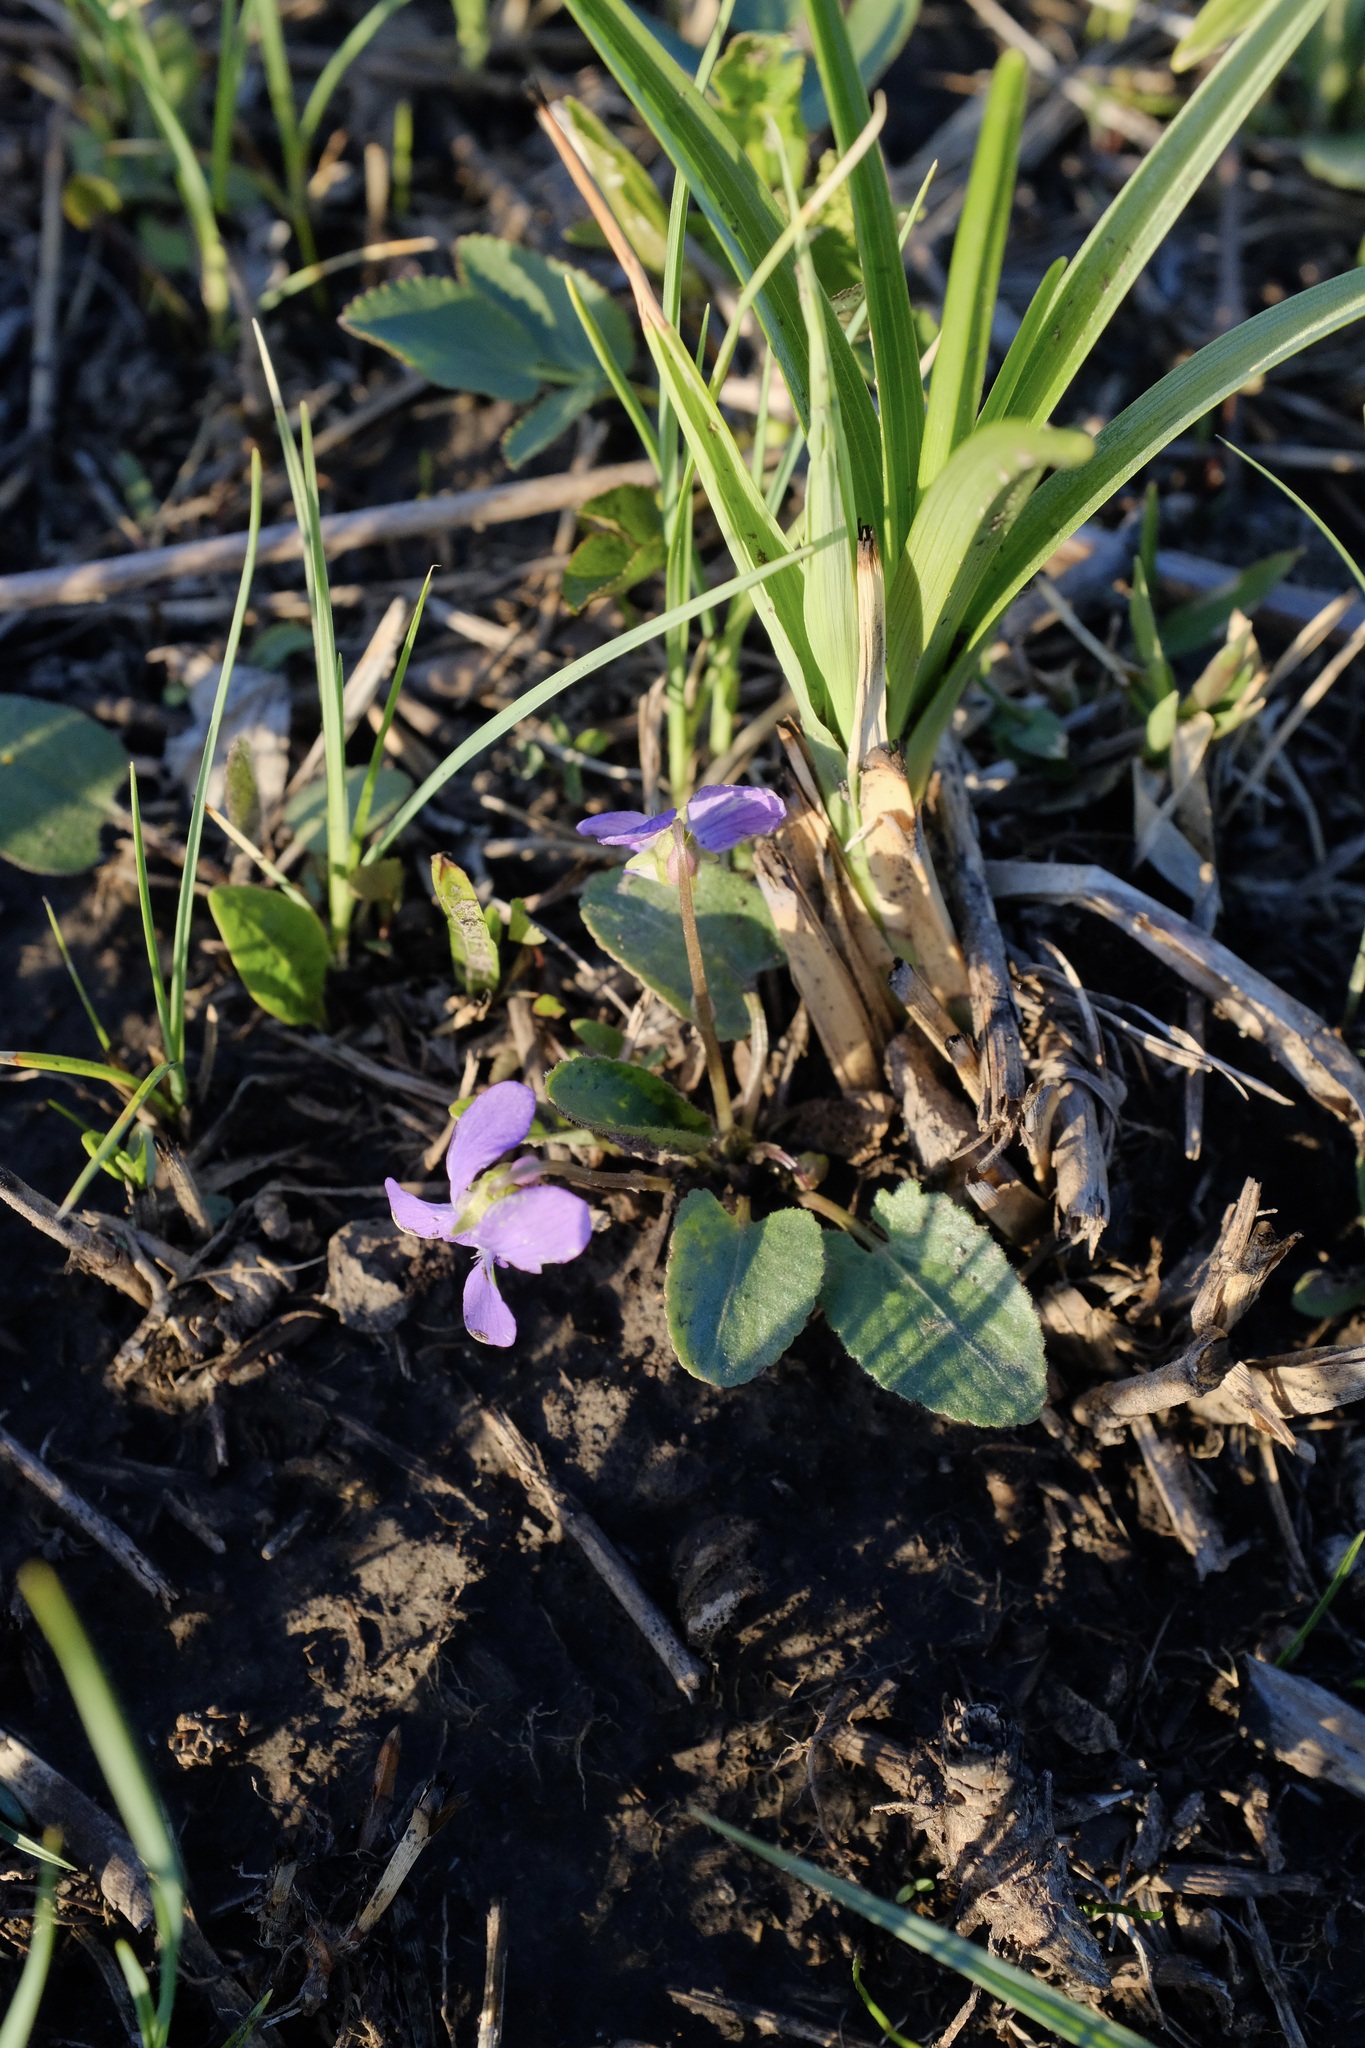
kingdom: Plantae
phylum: Tracheophyta
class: Magnoliopsida
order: Malpighiales
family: Violaceae
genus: Viola
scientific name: Viola sagittata
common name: Arrowhead violet
